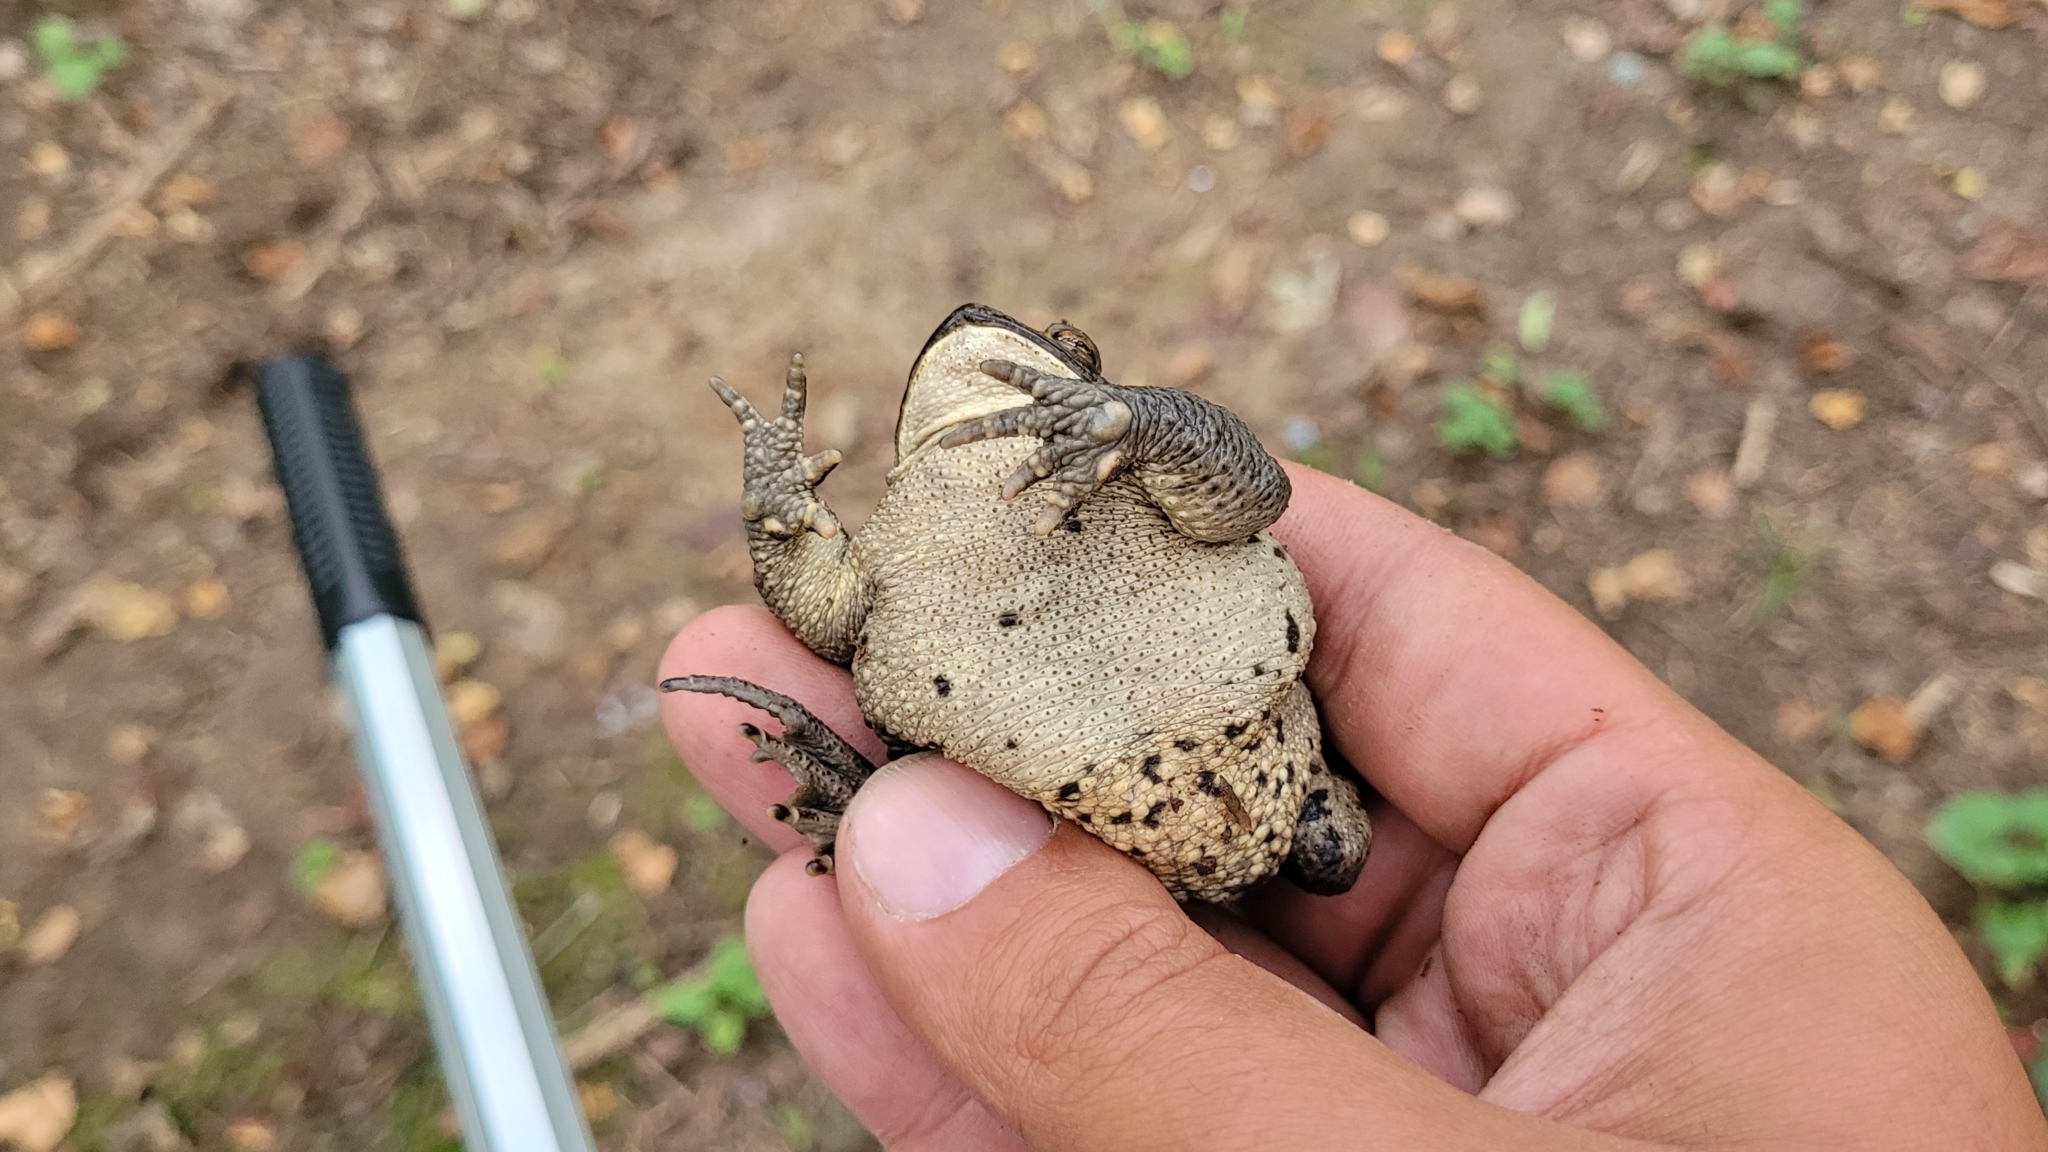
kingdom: Animalia
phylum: Chordata
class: Amphibia
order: Anura
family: Bufonidae
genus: Bufo
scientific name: Bufo gargarizans
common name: Asiatic toad
